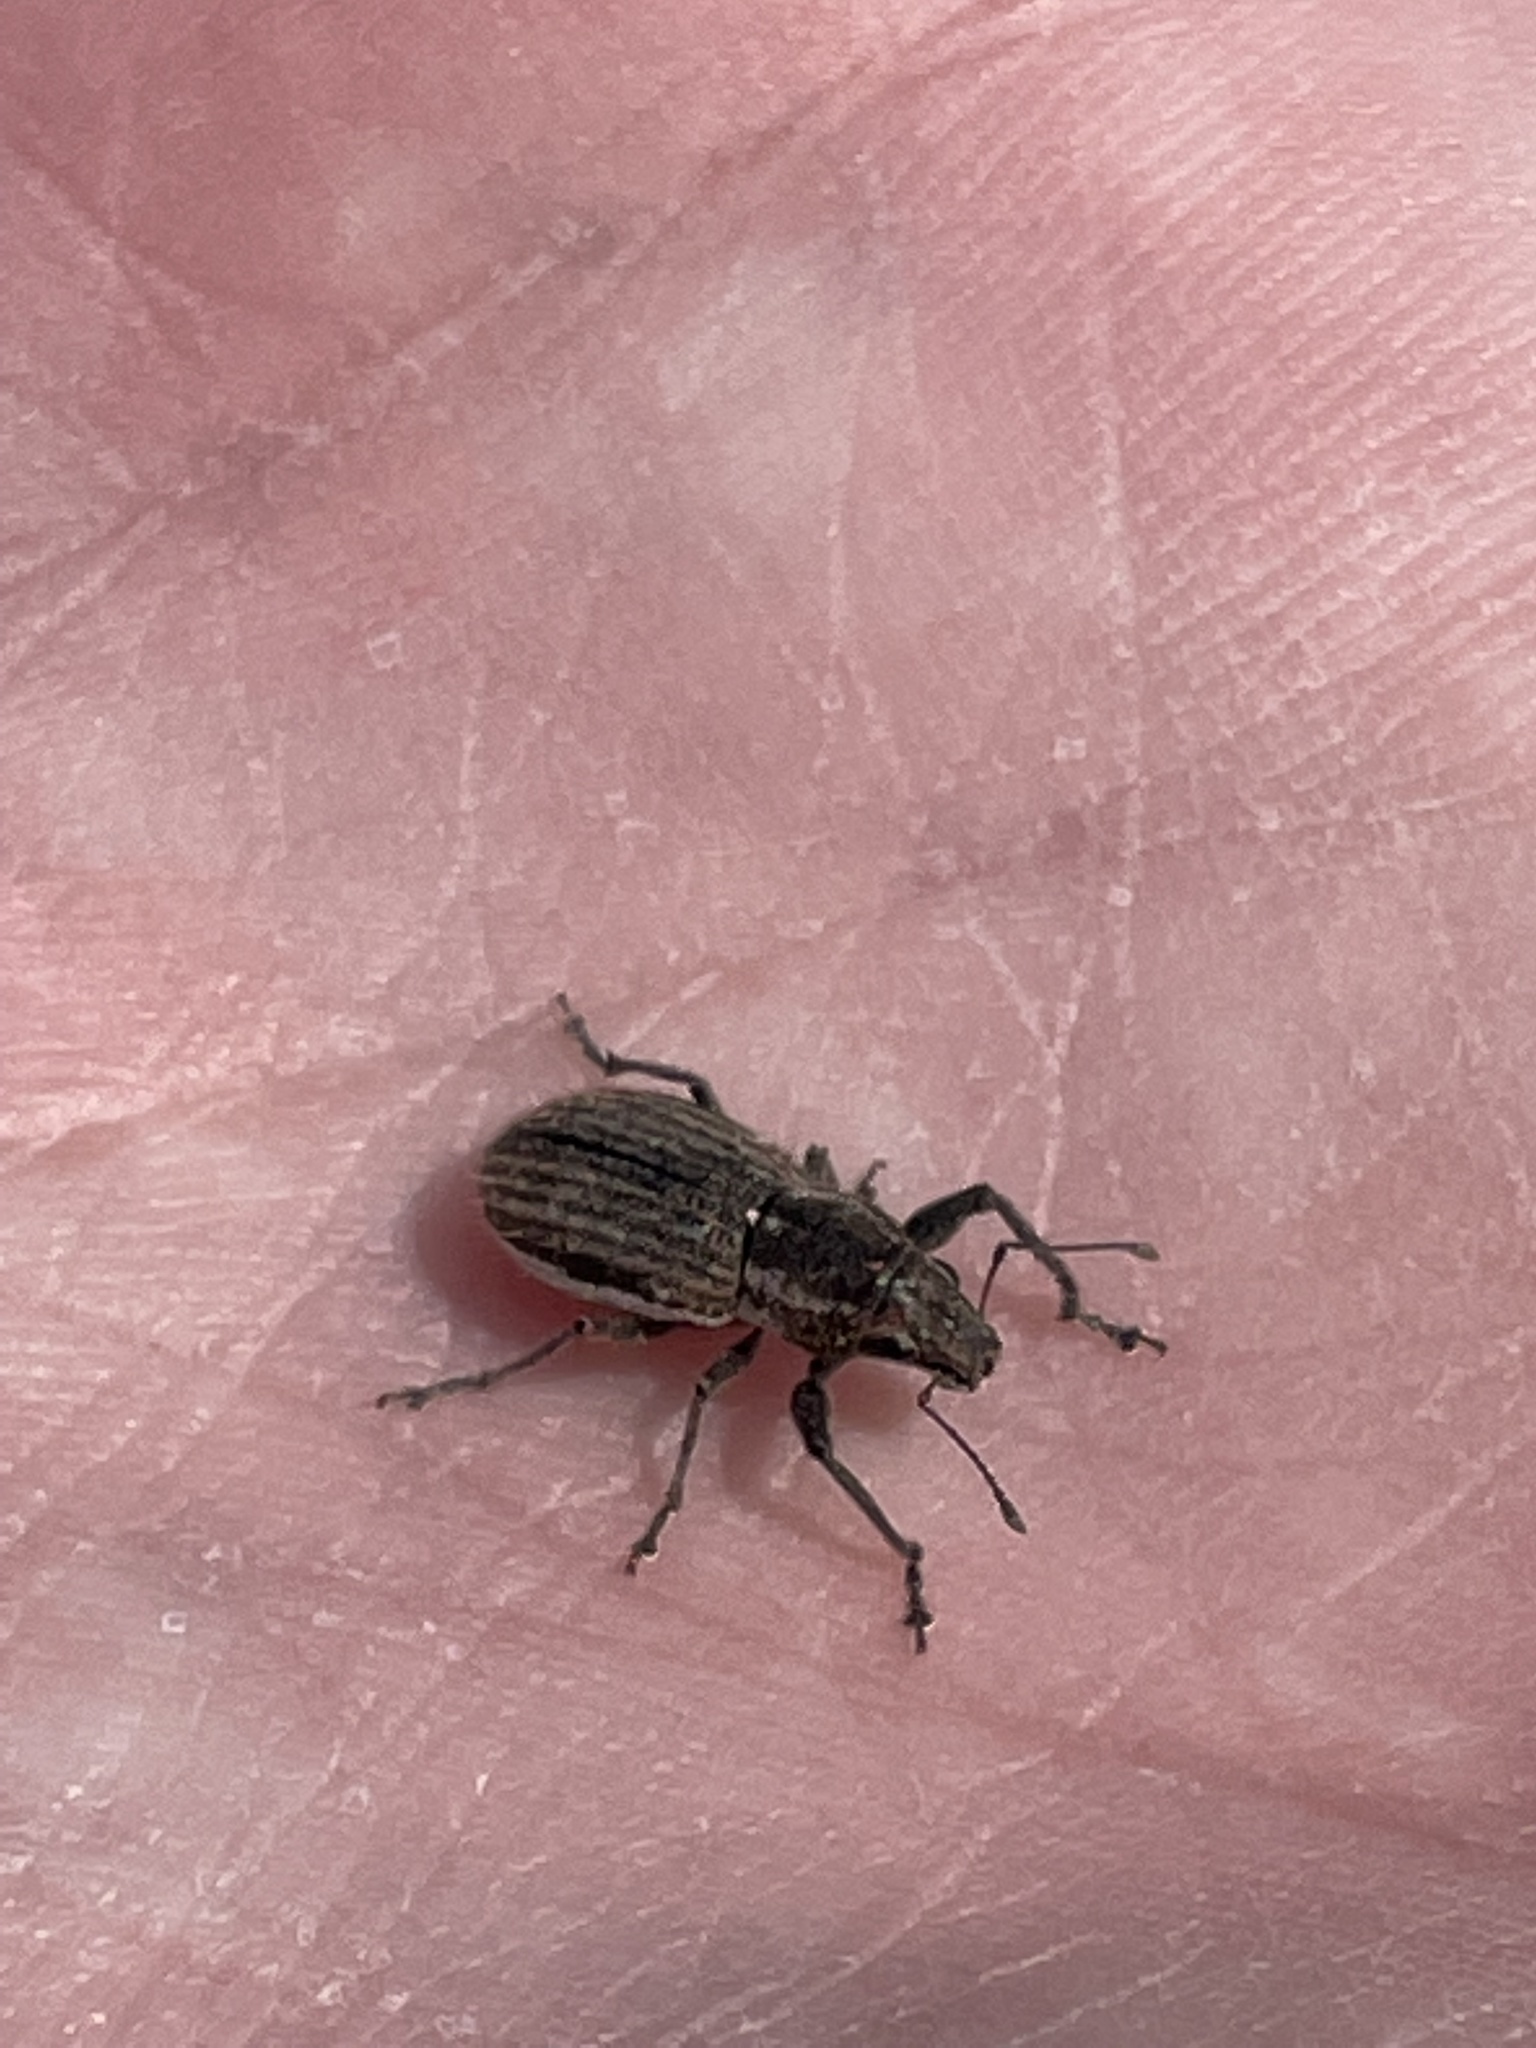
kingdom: Animalia
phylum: Arthropoda
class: Insecta
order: Coleoptera
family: Curculionidae
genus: Naupactus
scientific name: Naupactus leucoloma
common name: Whitefringed beetle
